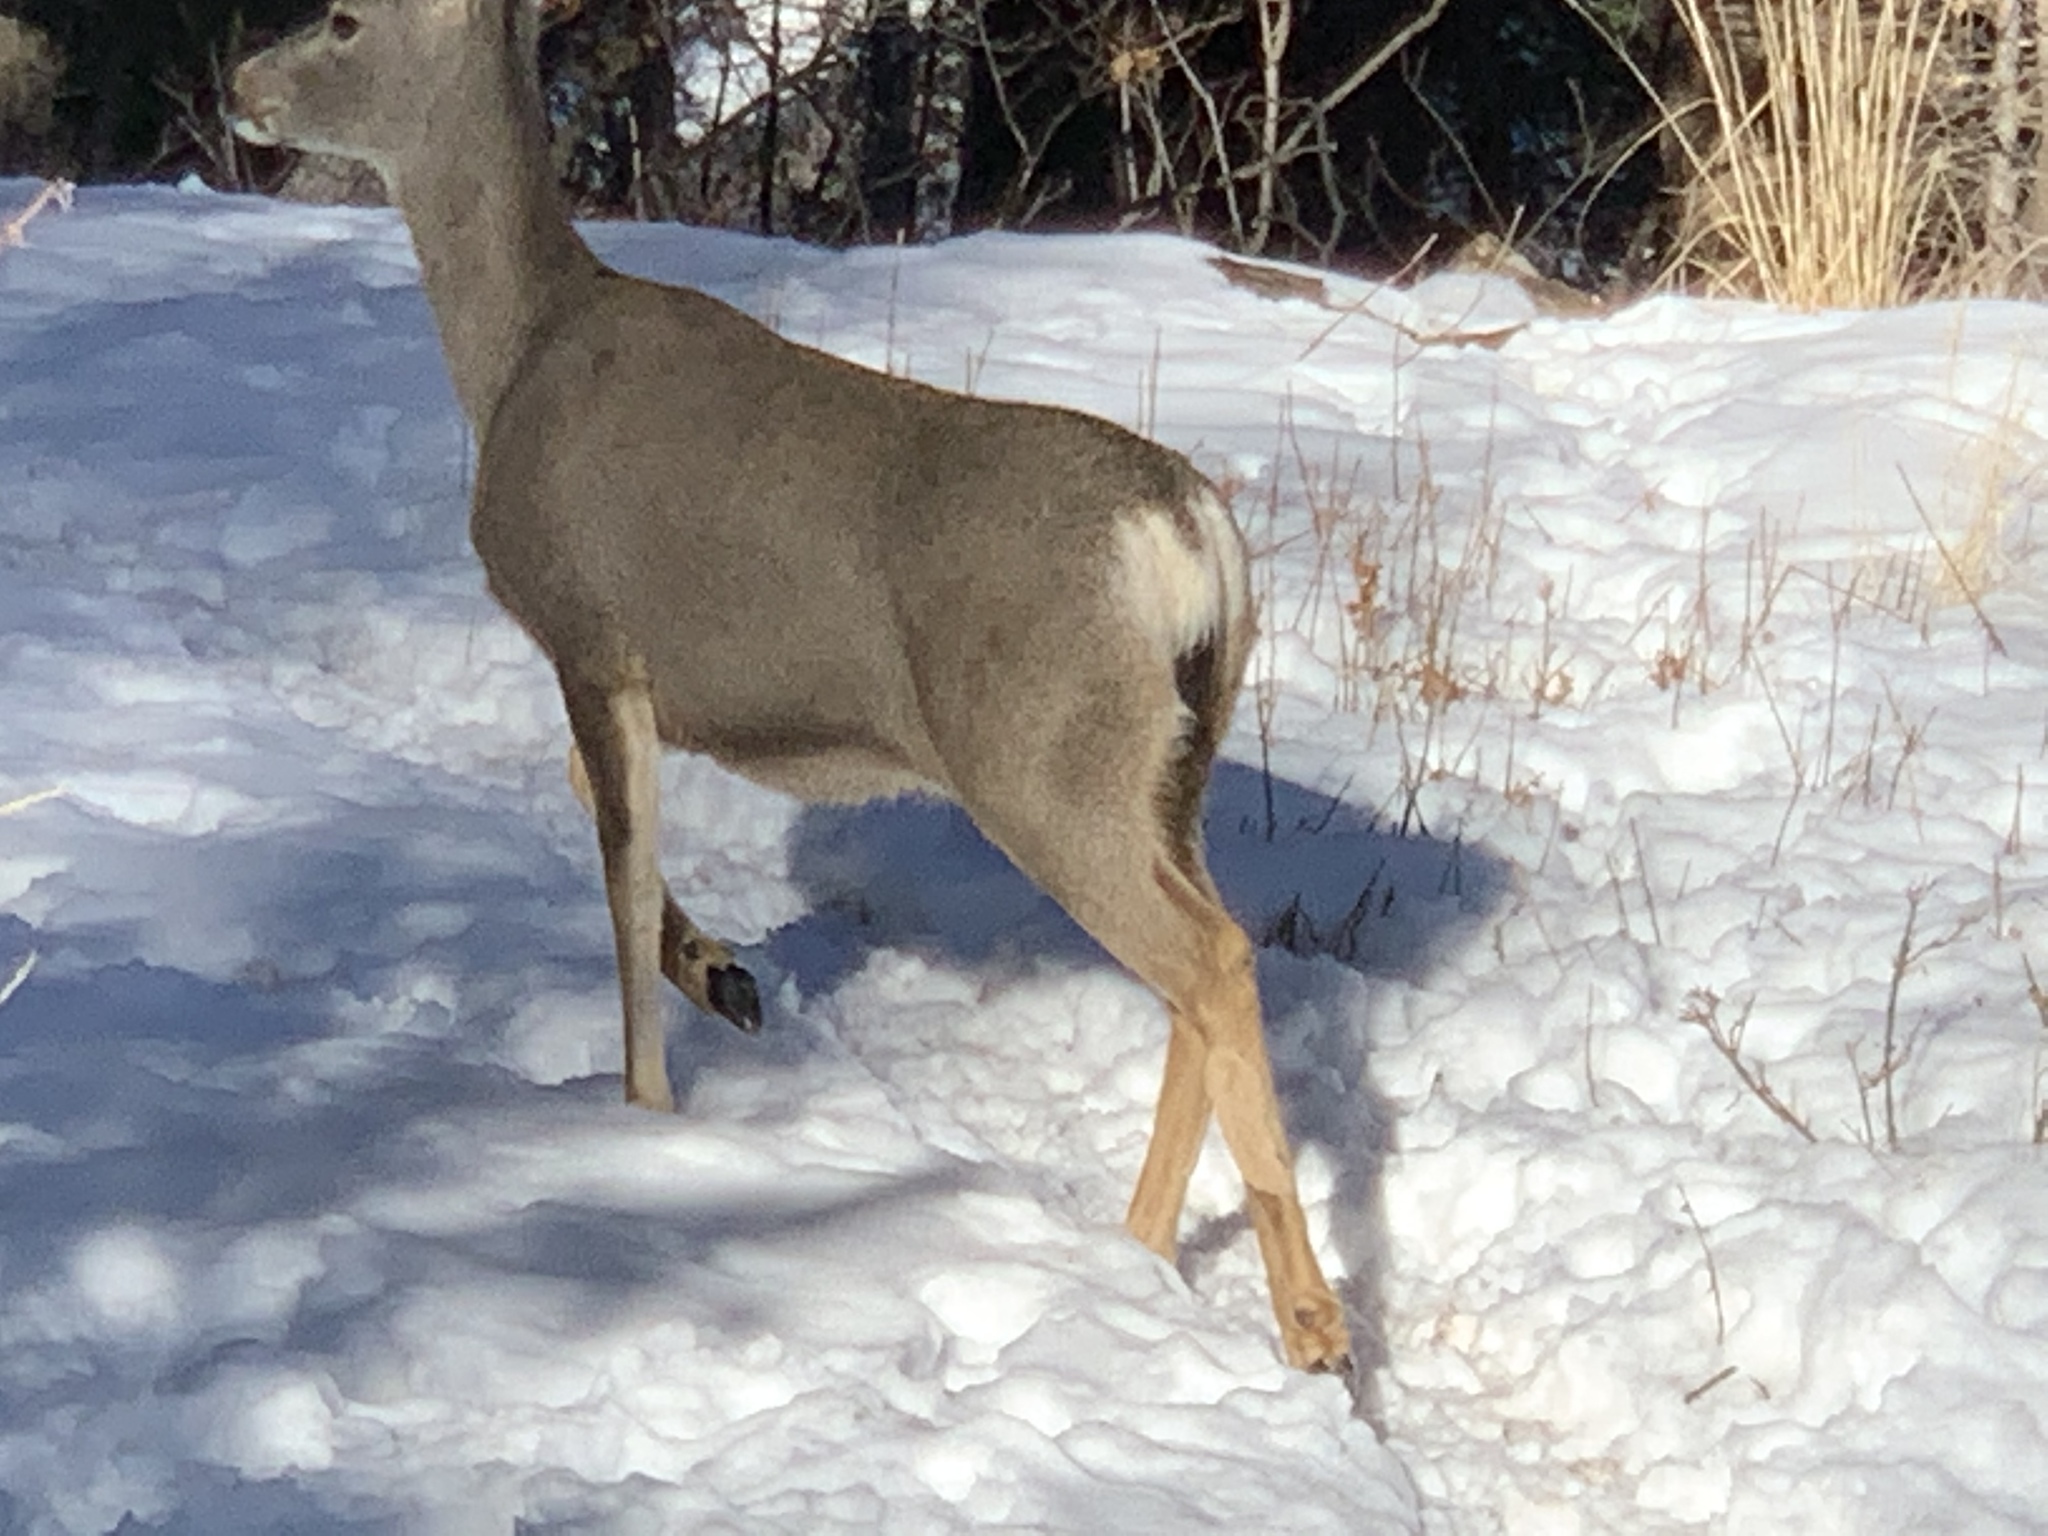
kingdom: Animalia
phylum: Chordata
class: Mammalia
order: Artiodactyla
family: Cervidae
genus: Odocoileus
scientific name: Odocoileus hemionus
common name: Mule deer
